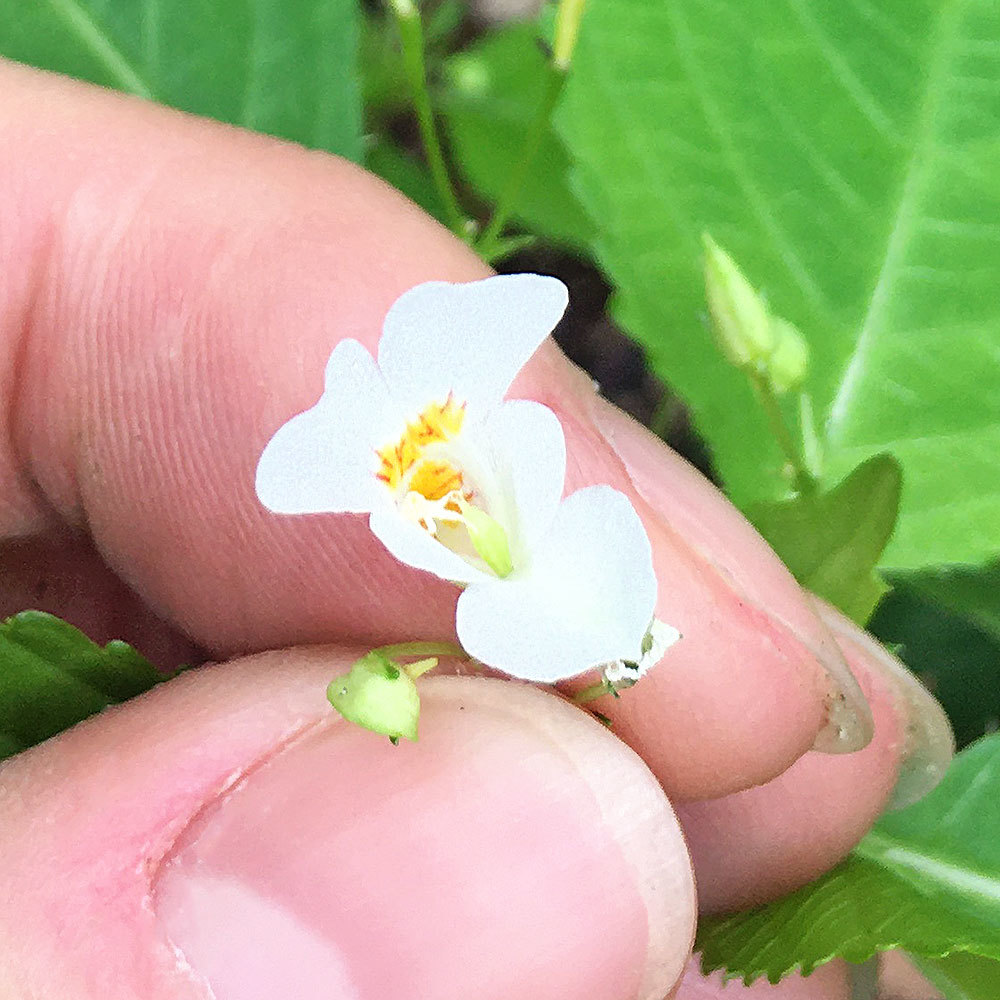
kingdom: Plantae
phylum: Tracheophyta
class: Magnoliopsida
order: Ericales
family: Balsaminaceae
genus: Impatiens
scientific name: Impatiens parviflora
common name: Small balsam
